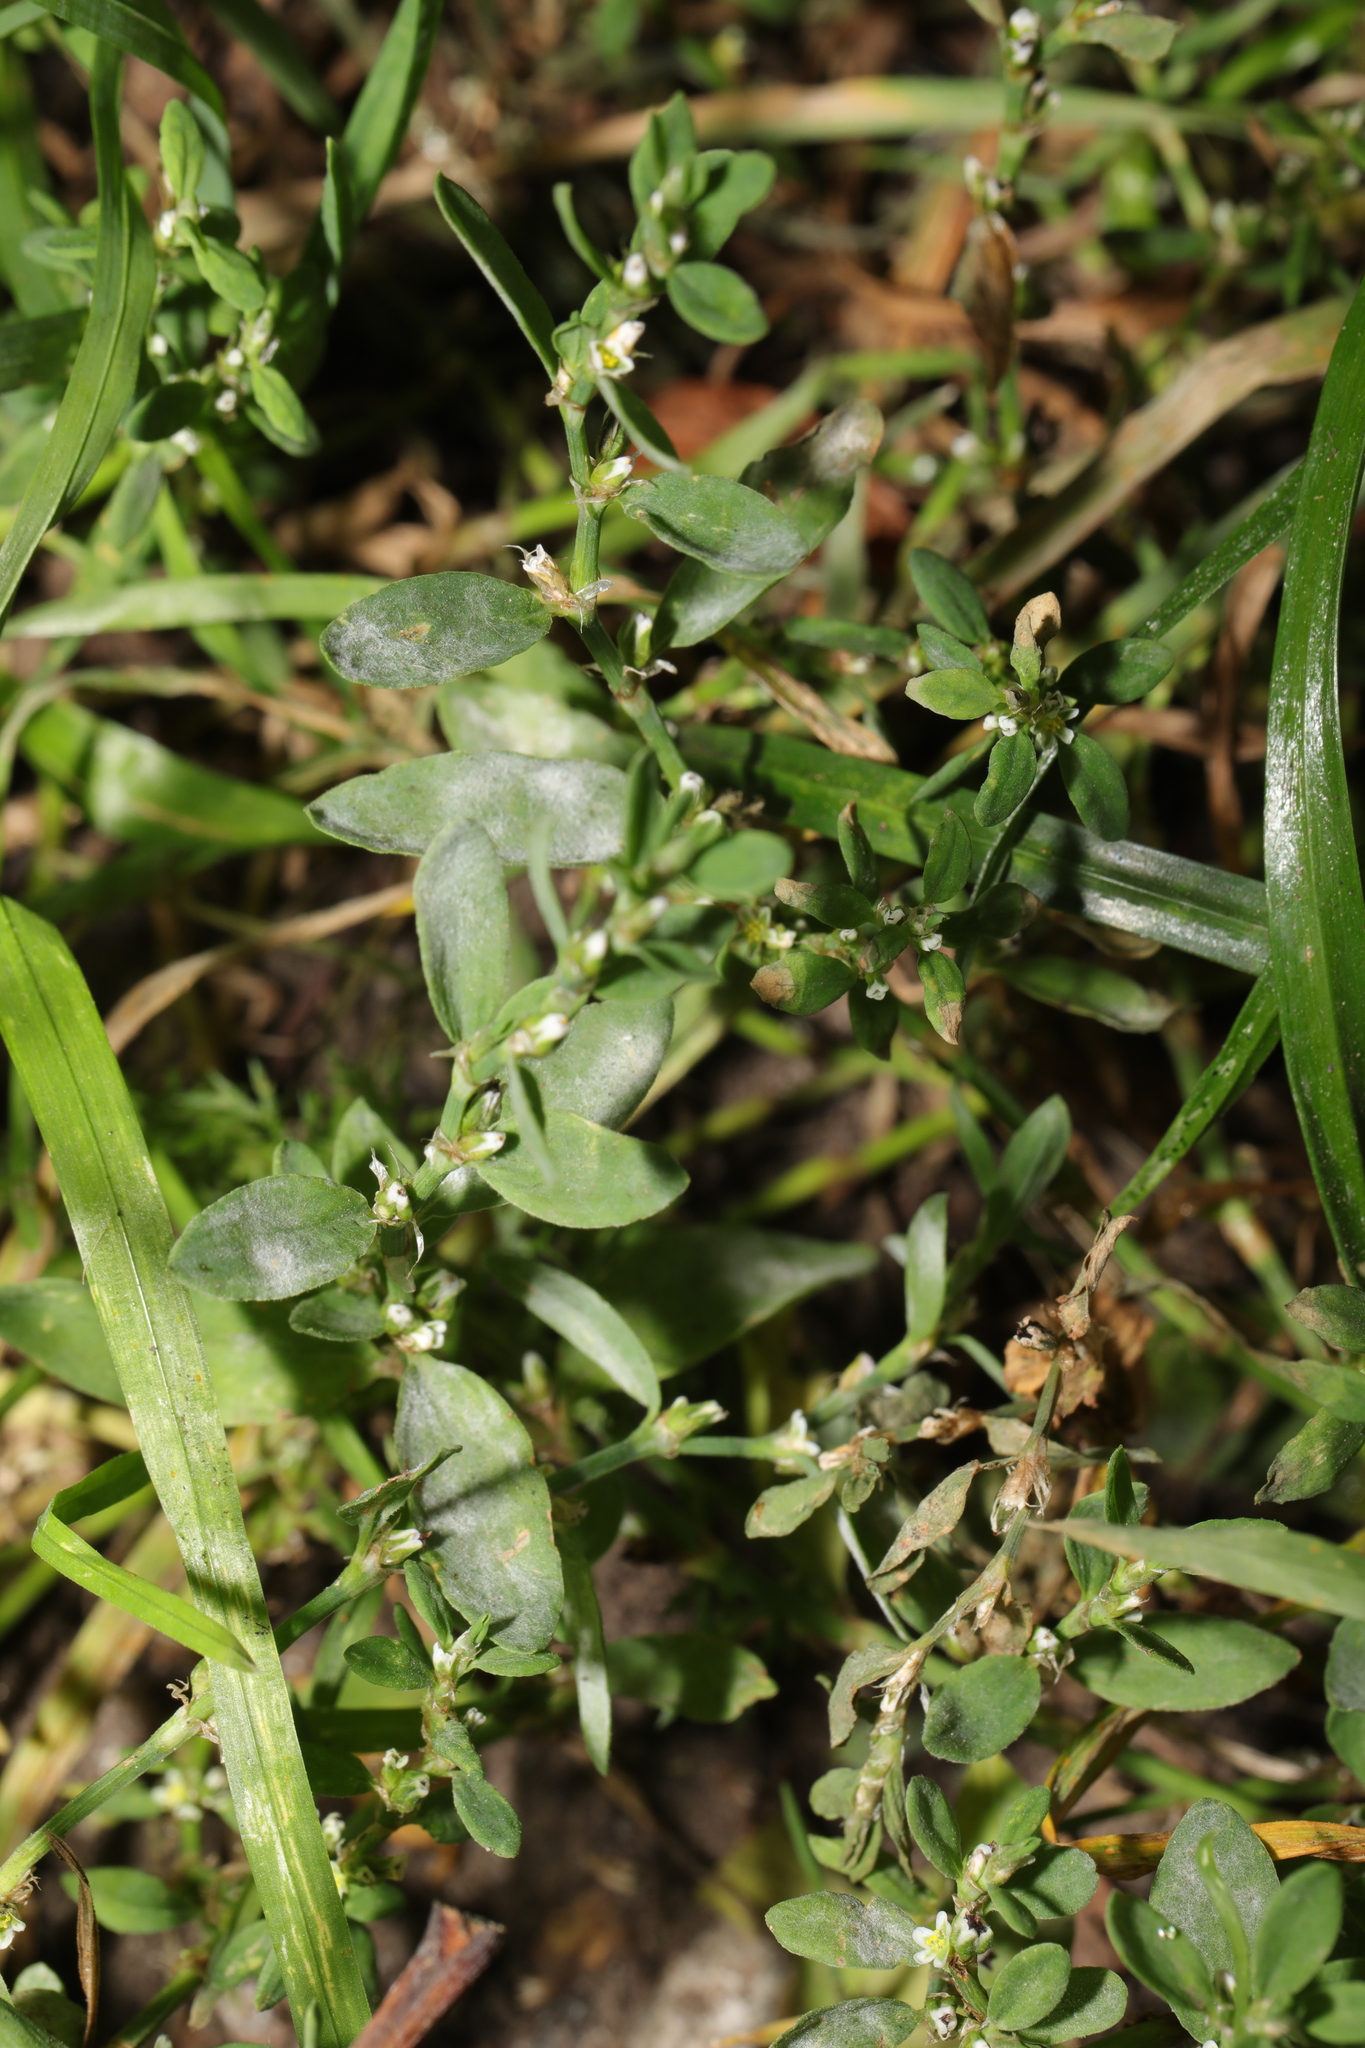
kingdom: Plantae
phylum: Tracheophyta
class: Magnoliopsida
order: Caryophyllales
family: Polygonaceae
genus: Polygonum
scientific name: Polygonum aviculare
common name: Prostrate knotweed
